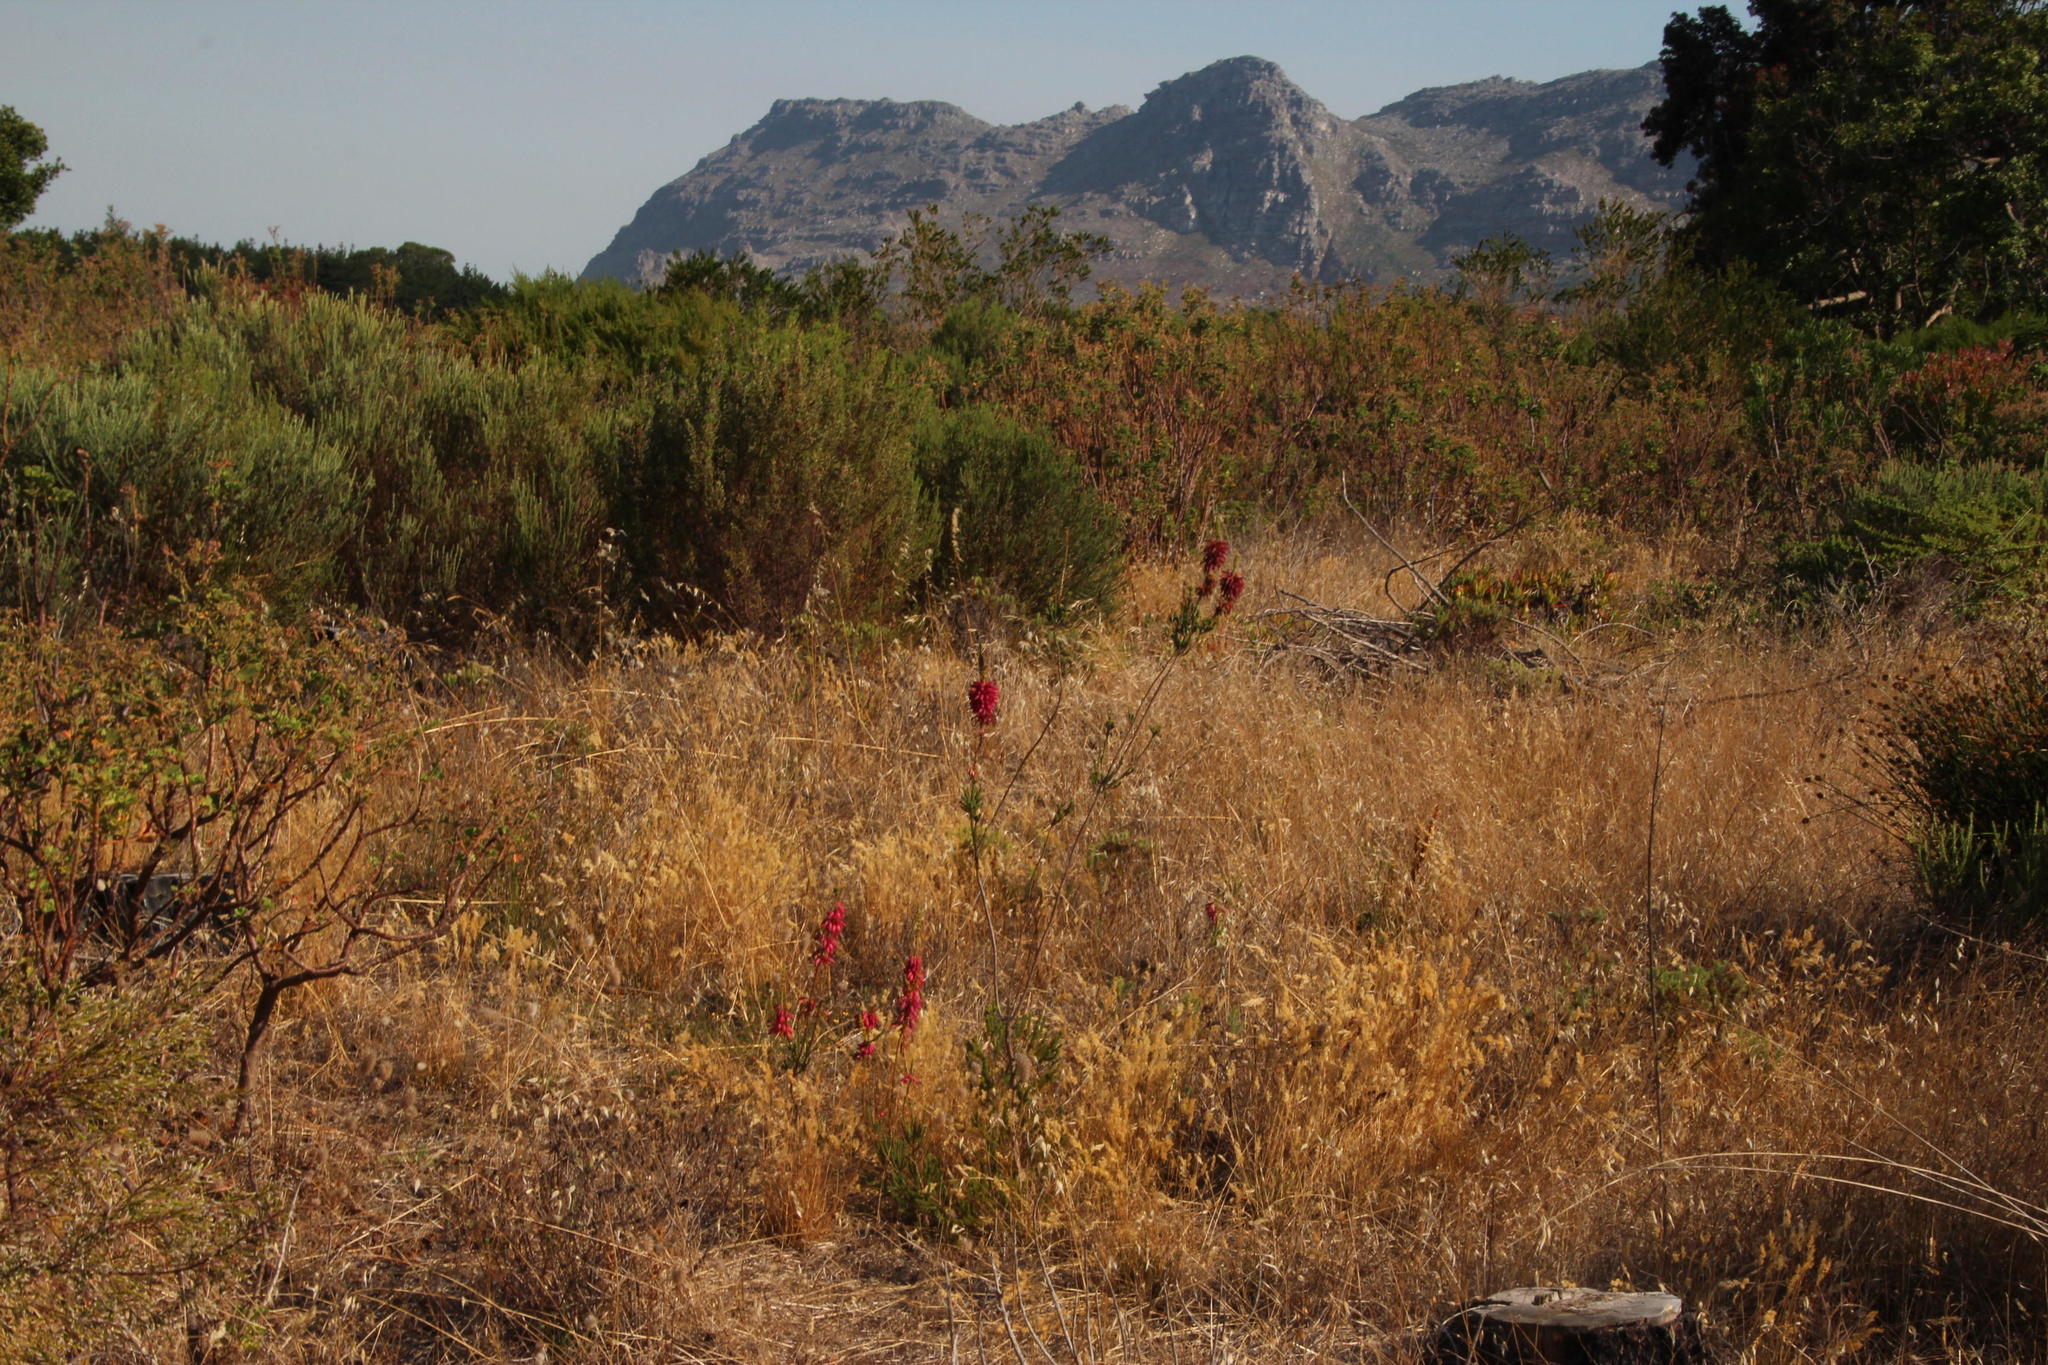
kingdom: Plantae
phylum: Tracheophyta
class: Magnoliopsida
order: Ericales
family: Ericaceae
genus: Erica
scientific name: Erica mammosa
